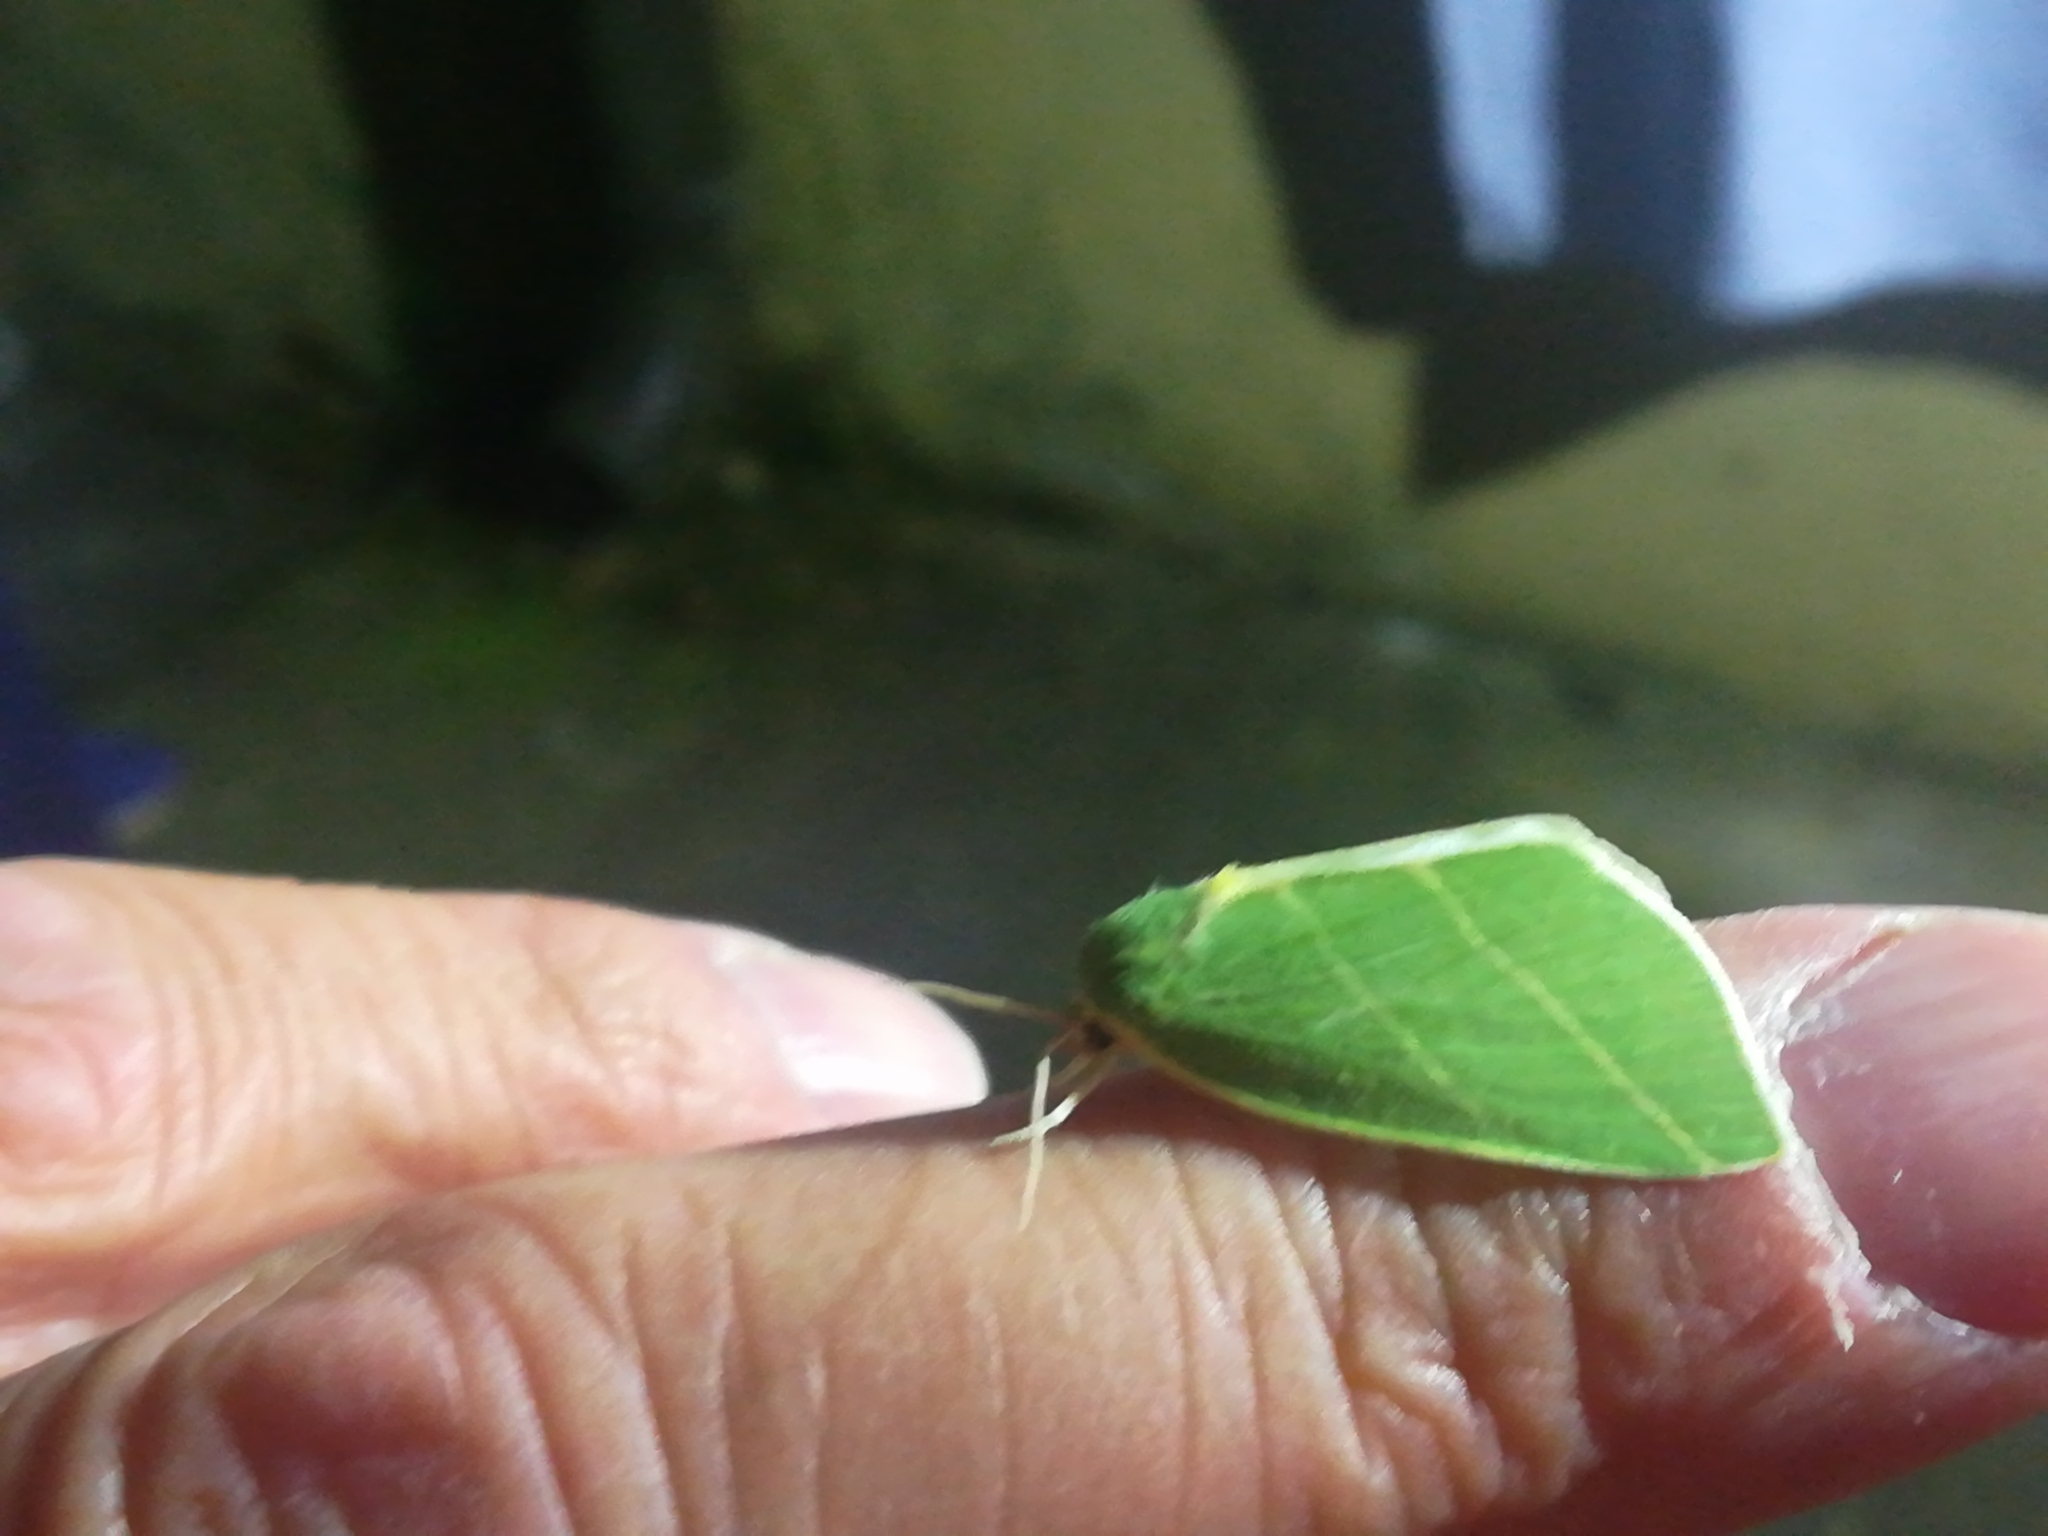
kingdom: Animalia
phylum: Arthropoda
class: Insecta
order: Lepidoptera
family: Nolidae
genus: Bena
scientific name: Bena bicolorana
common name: Scarce silver-lines
